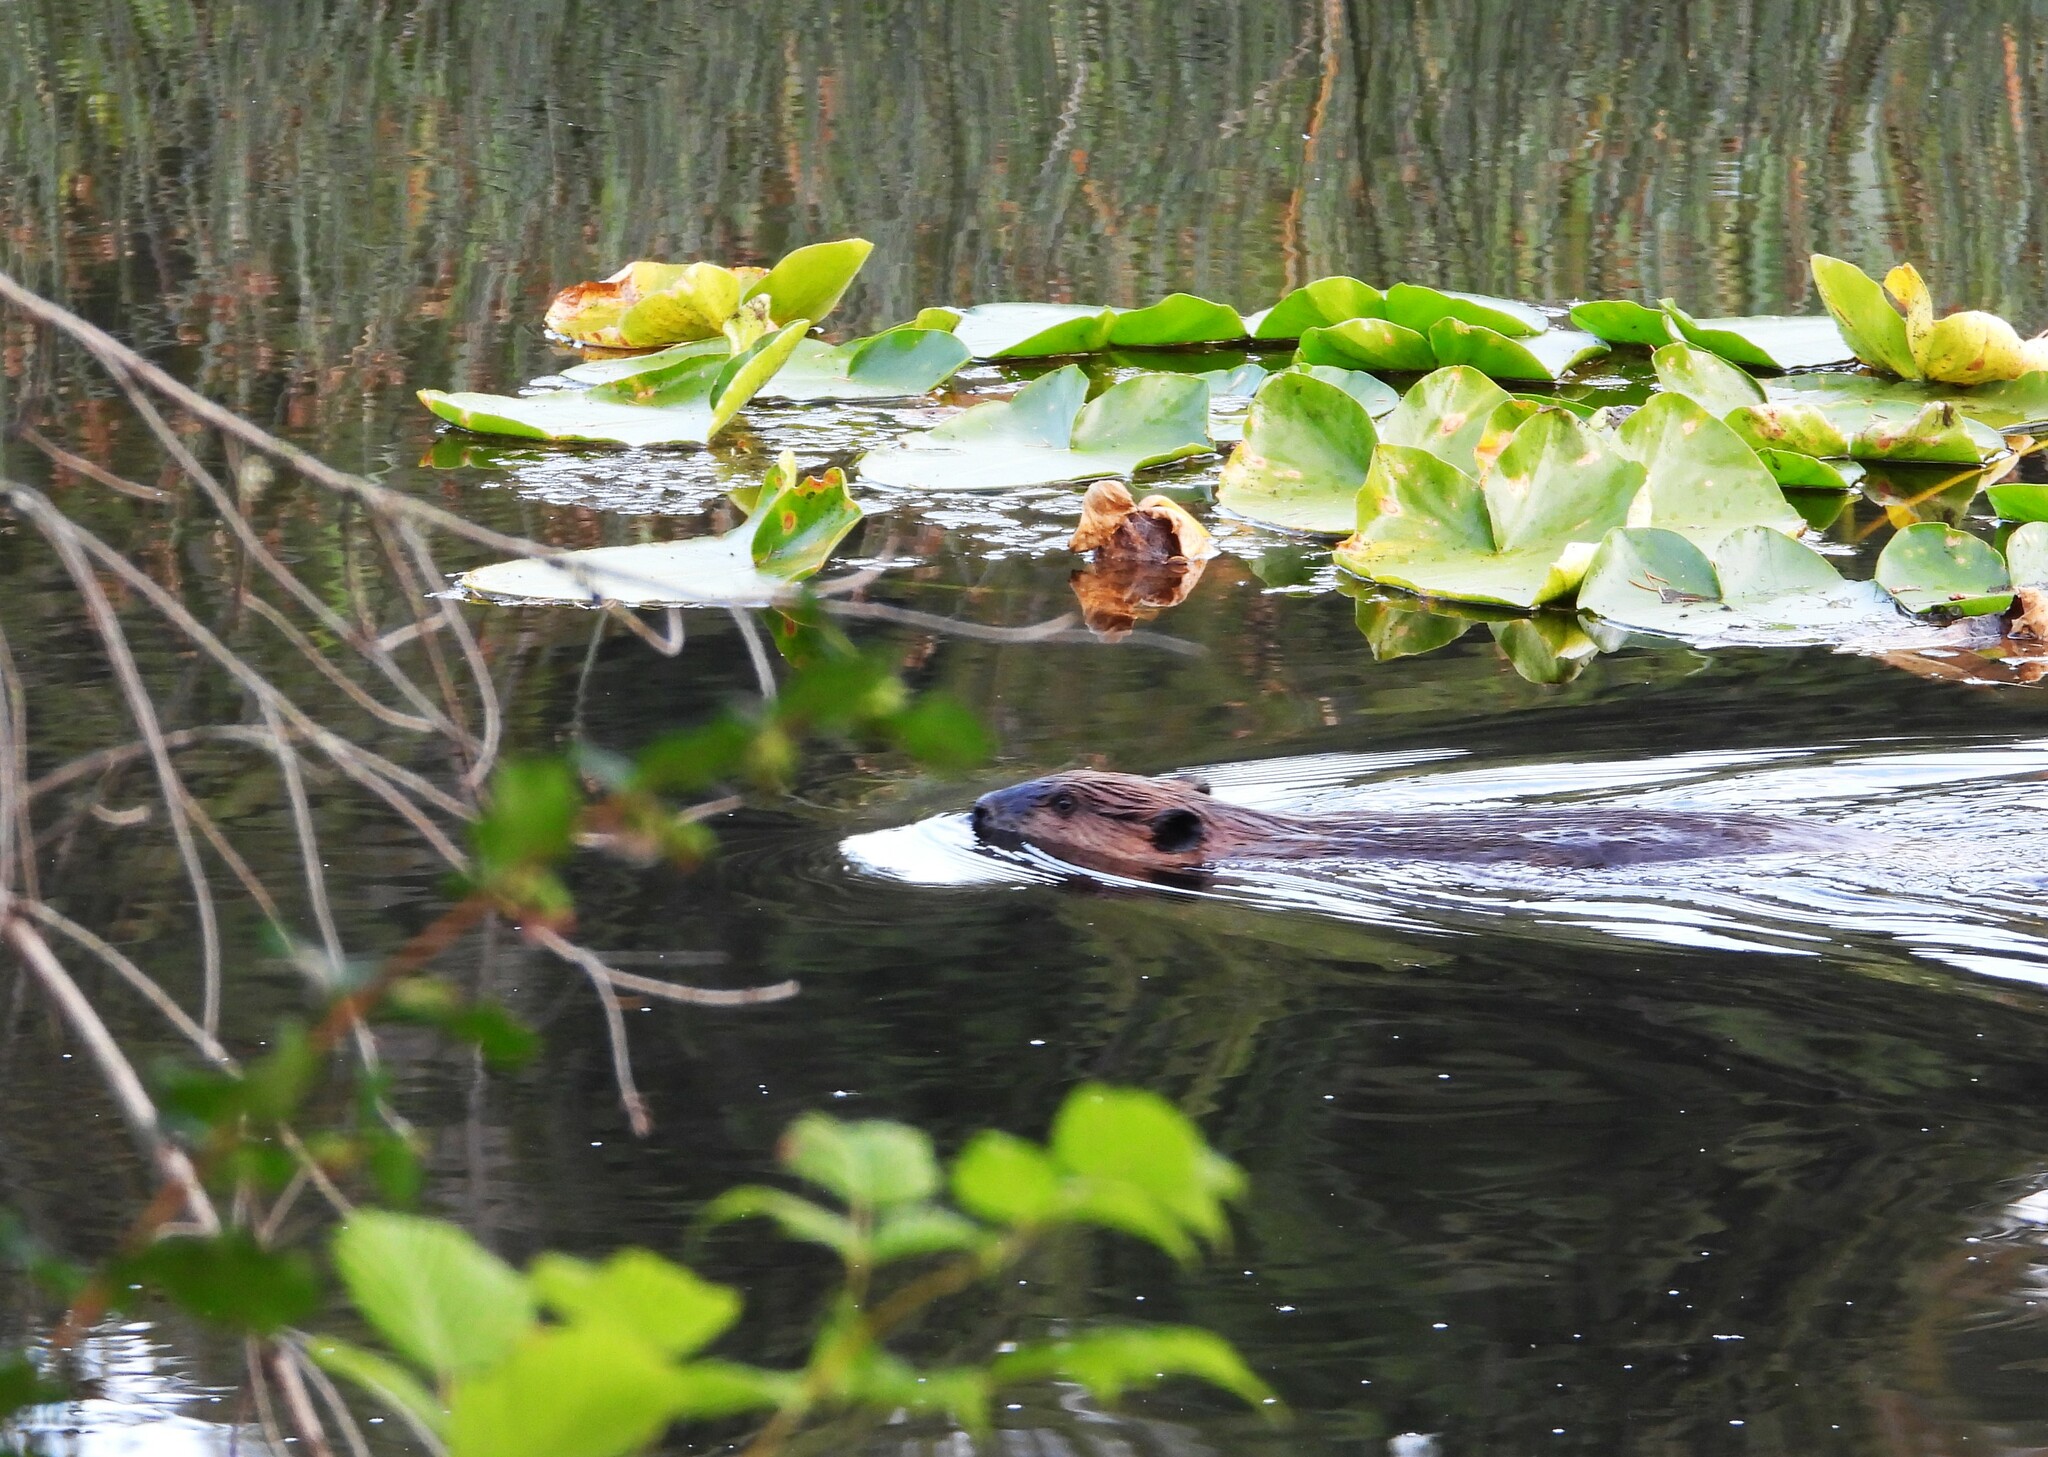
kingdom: Animalia
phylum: Chordata
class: Mammalia
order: Rodentia
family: Castoridae
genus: Castor
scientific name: Castor canadensis
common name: American beaver
